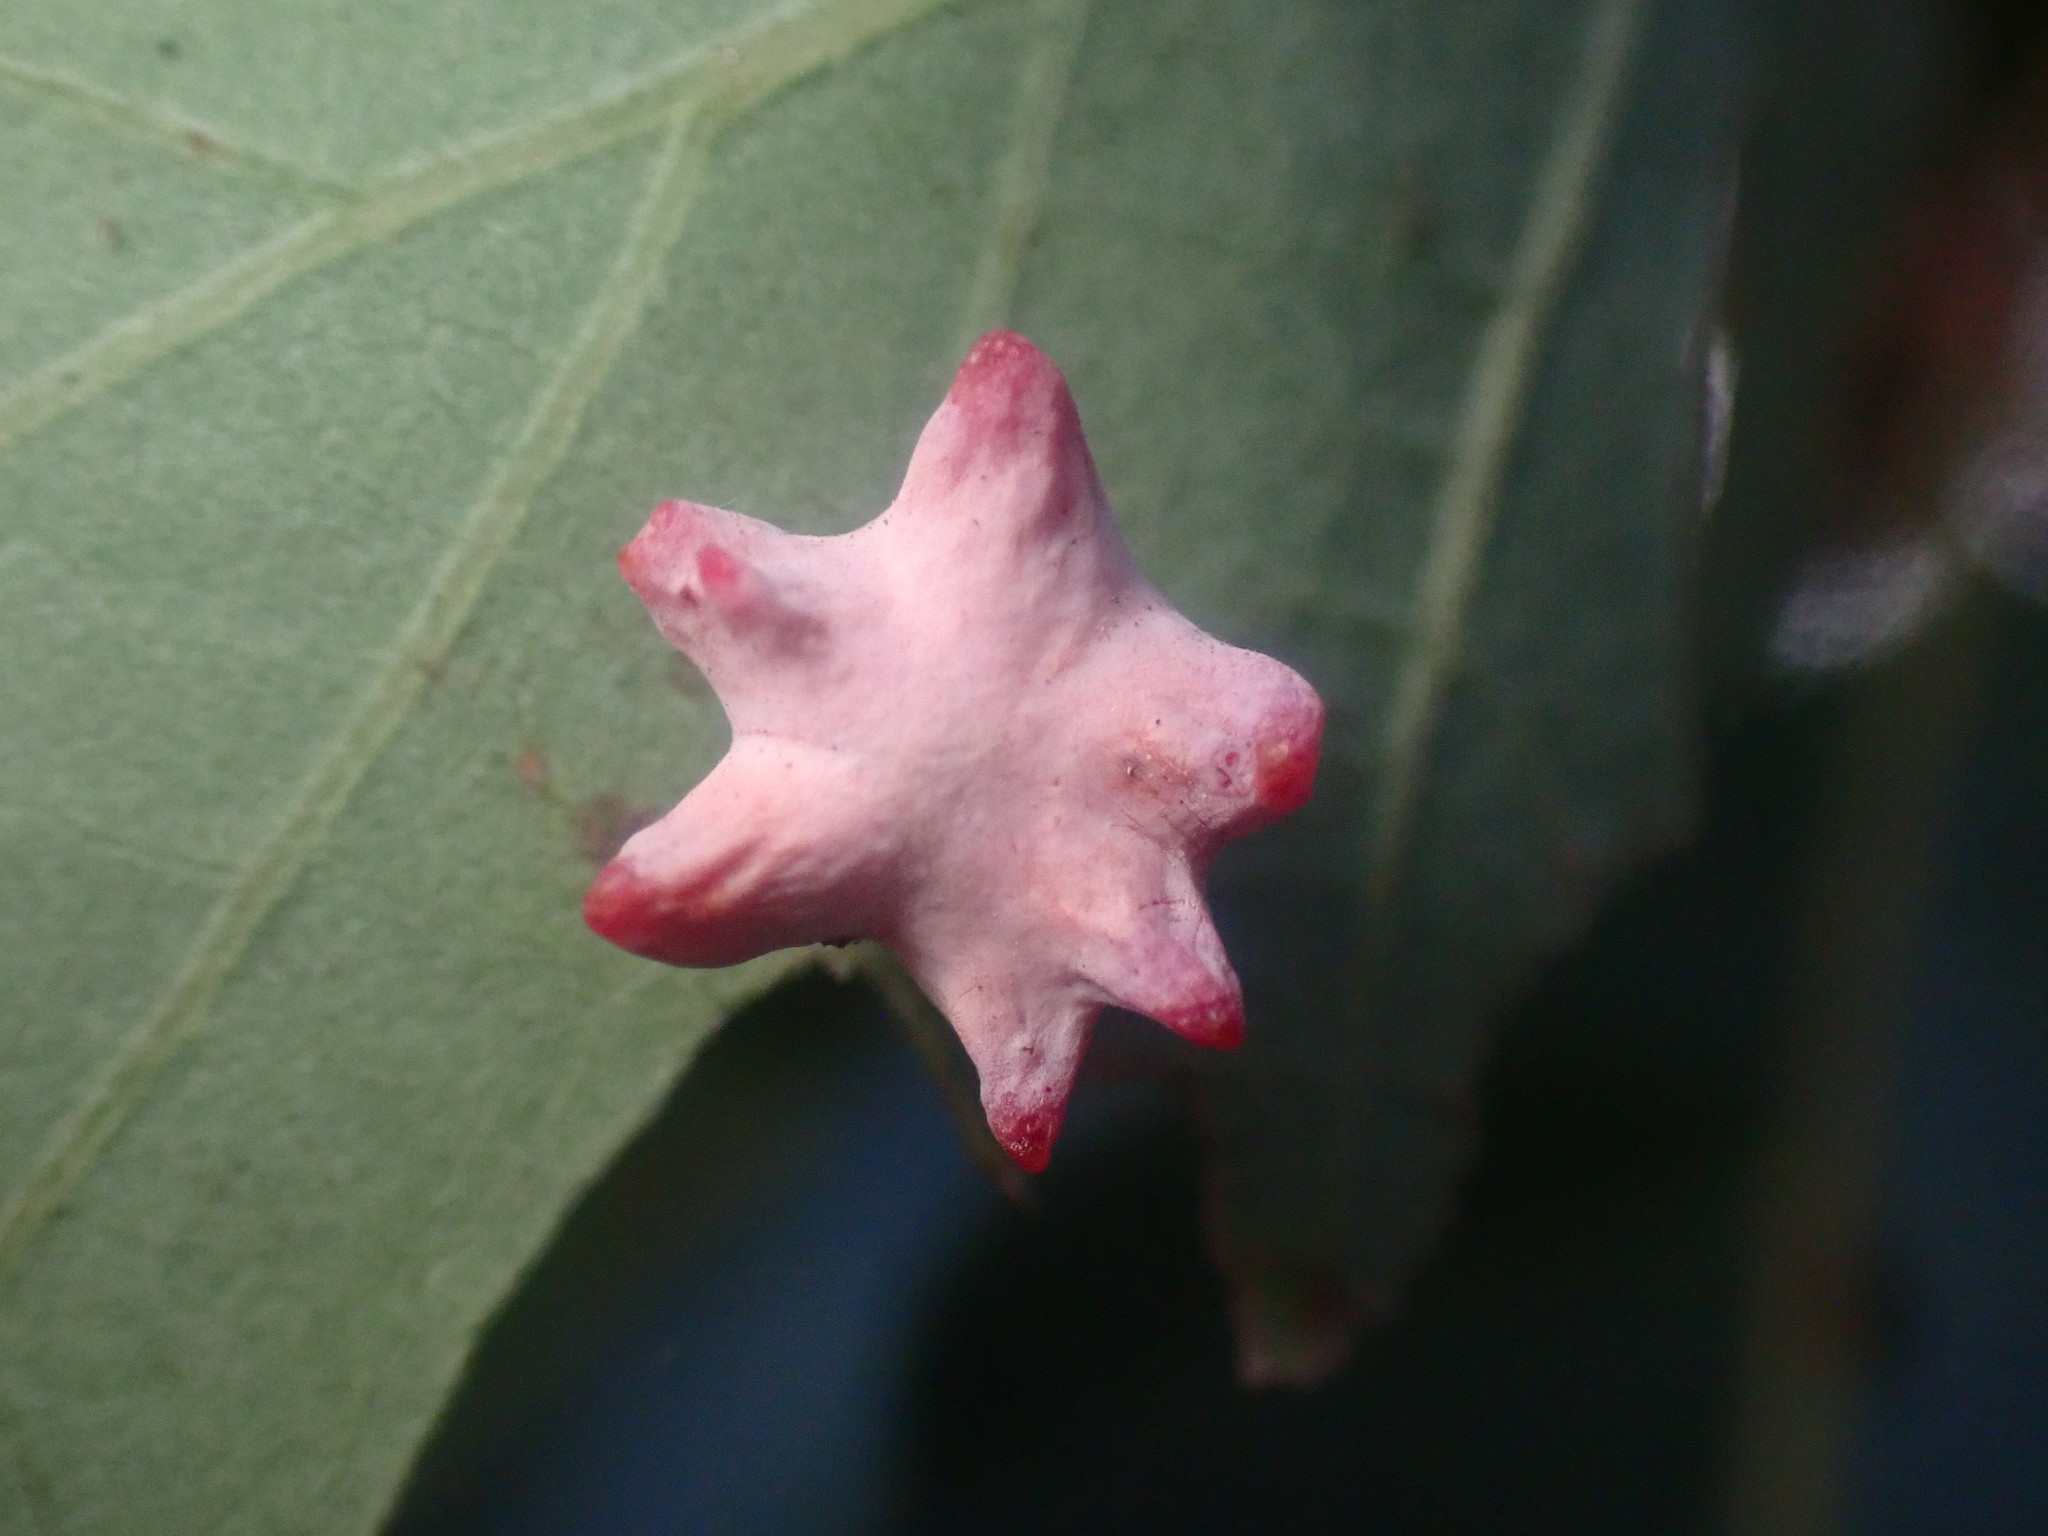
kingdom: Animalia
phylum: Arthropoda
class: Insecta
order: Hymenoptera
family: Cynipidae
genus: Cynips
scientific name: Cynips douglasi
